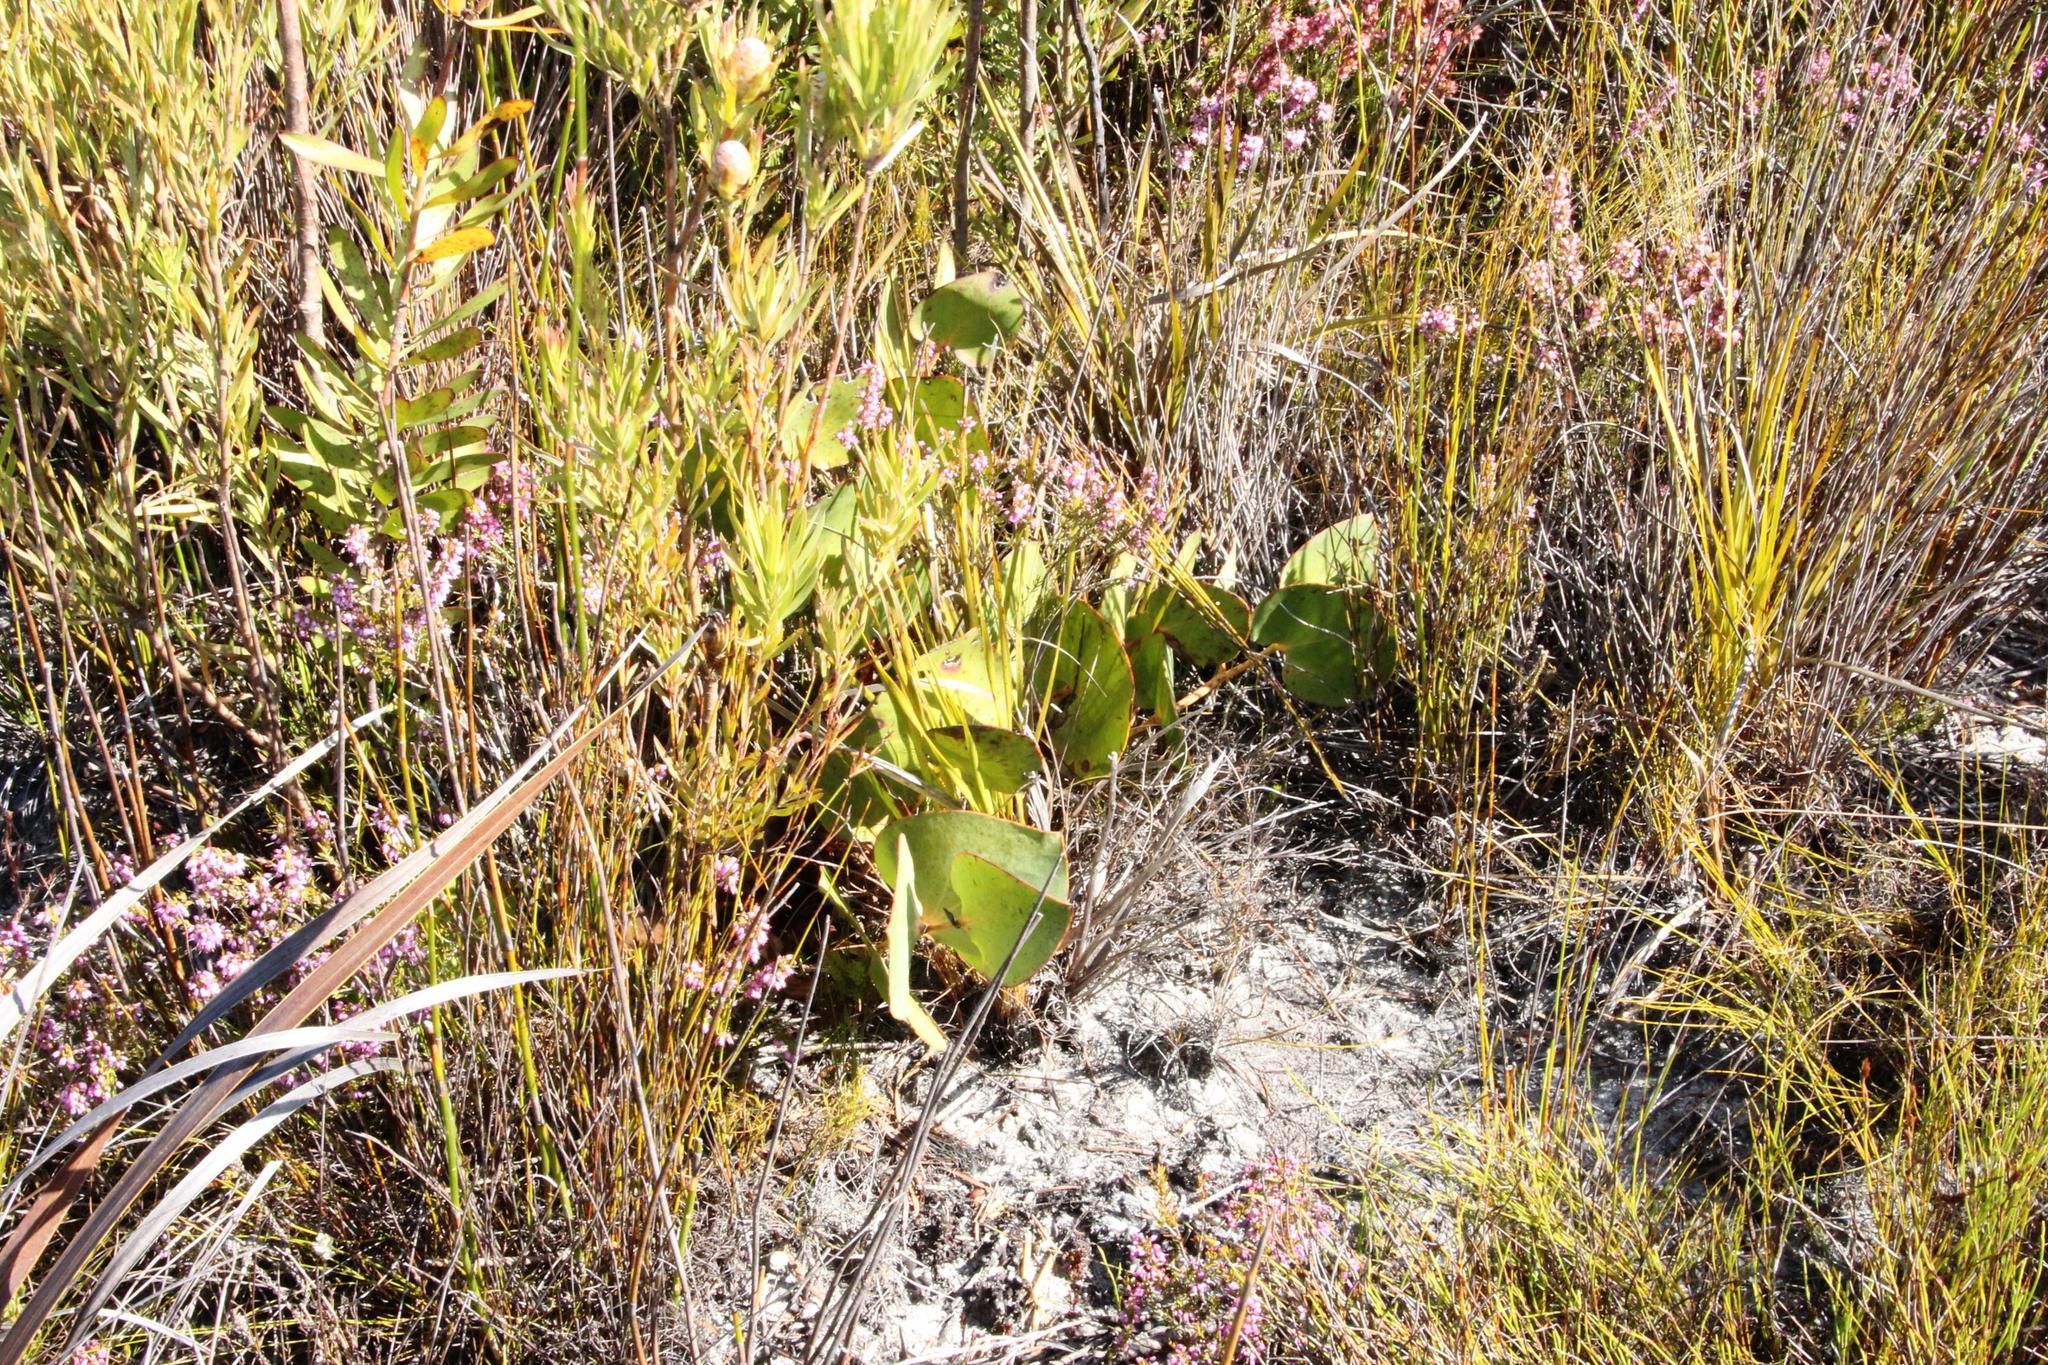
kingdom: Plantae
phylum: Tracheophyta
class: Magnoliopsida
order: Proteales
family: Proteaceae
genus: Protea
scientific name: Protea cordata
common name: Heart-leaf sugarbush
